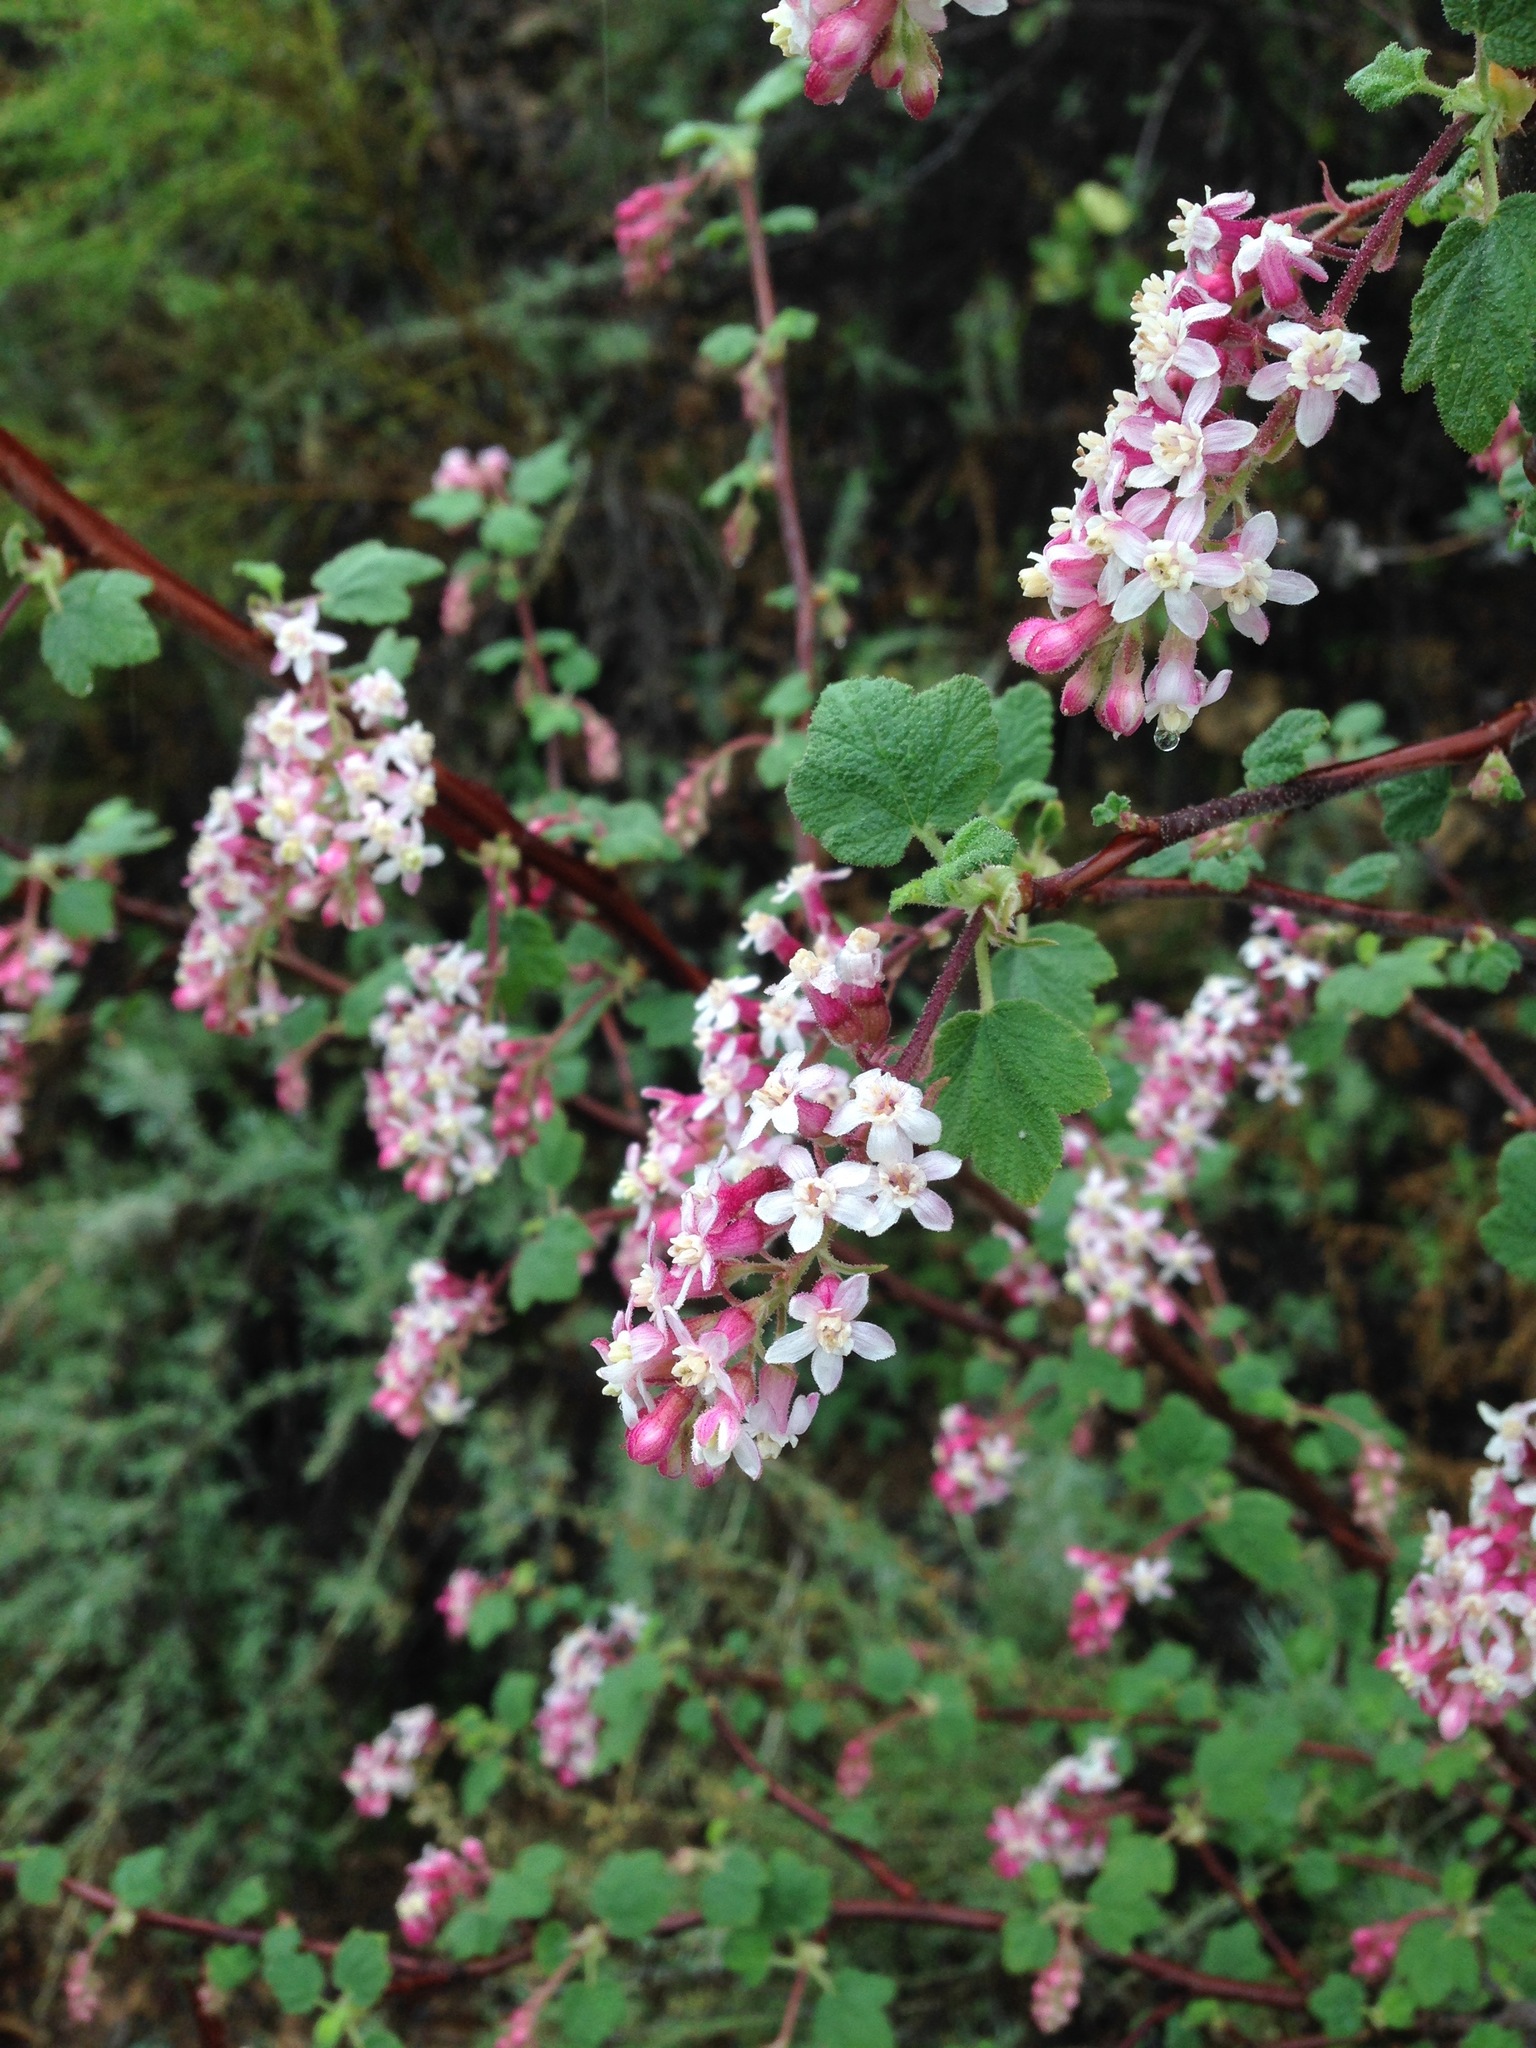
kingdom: Plantae
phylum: Tracheophyta
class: Magnoliopsida
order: Saxifragales
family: Grossulariaceae
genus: Ribes
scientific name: Ribes malvaceum
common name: Chaparral currant
